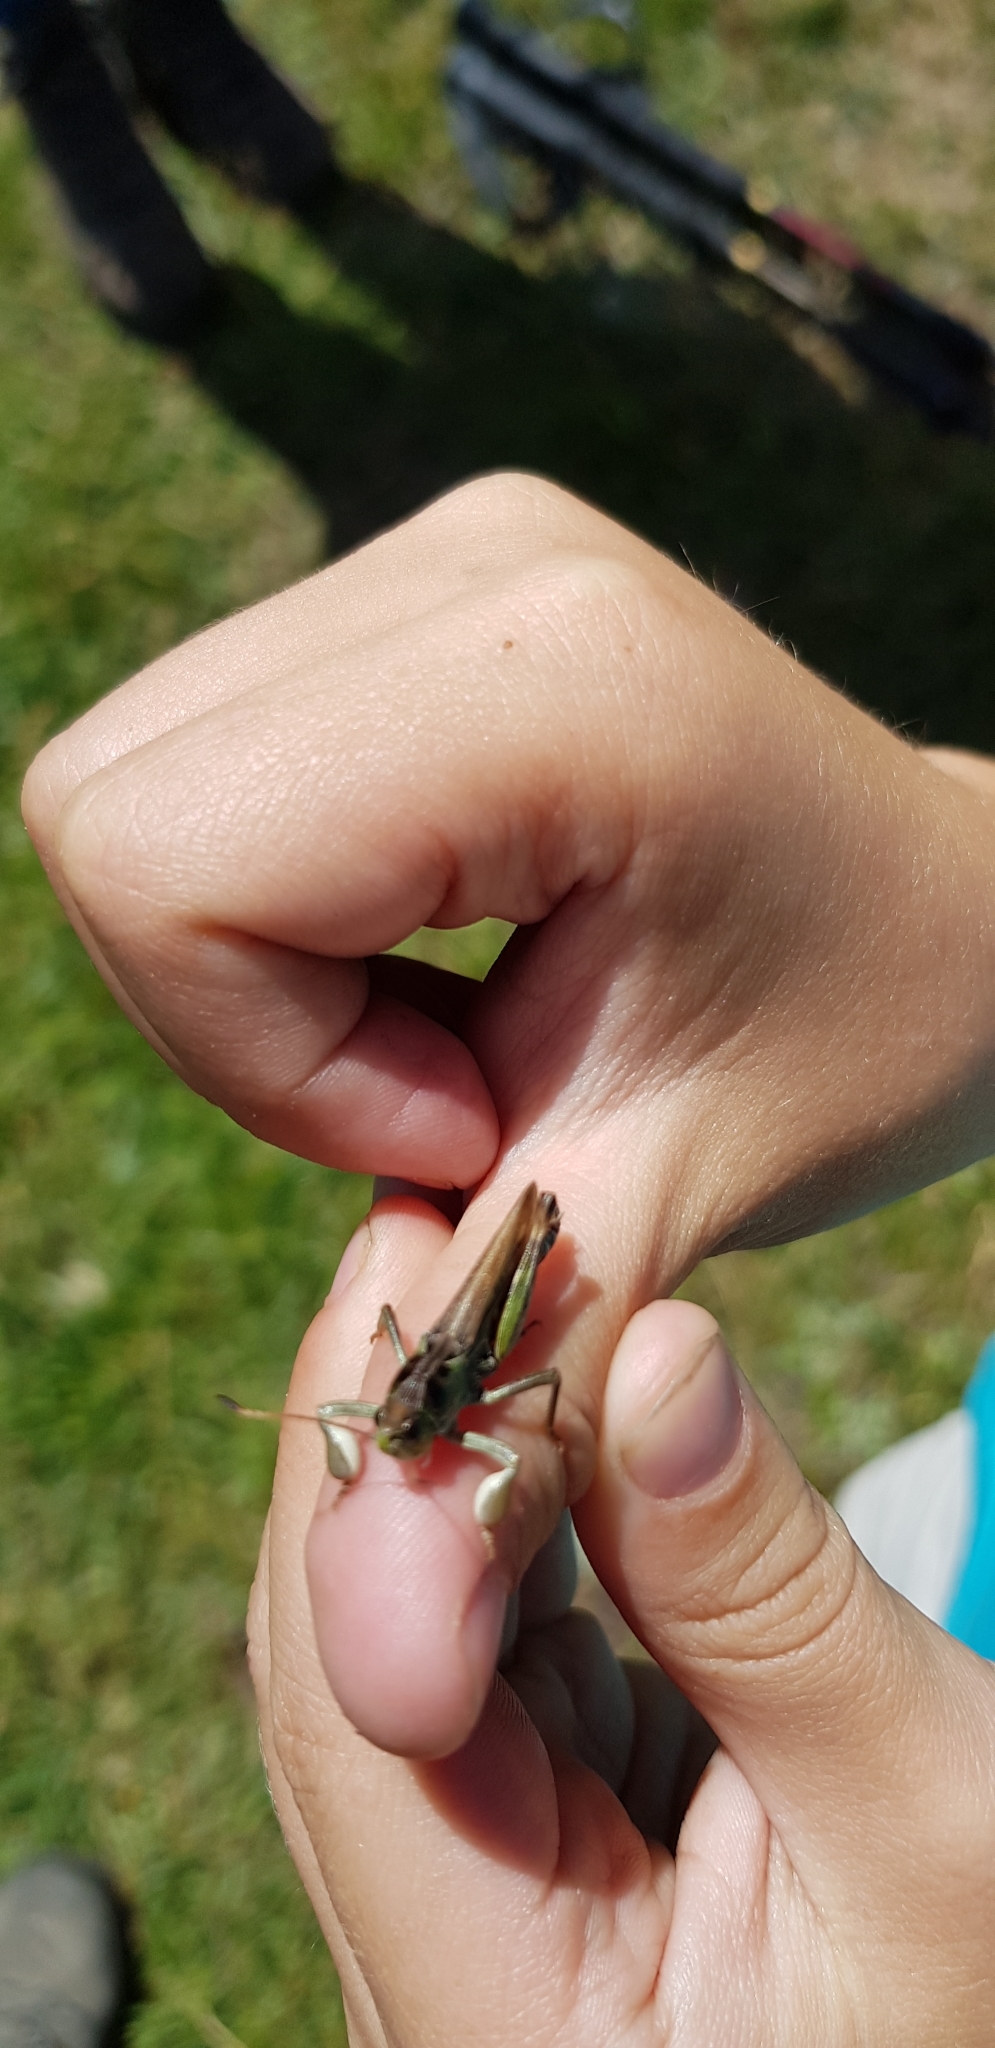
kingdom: Animalia
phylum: Arthropoda
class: Insecta
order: Orthoptera
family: Acrididae
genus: Gomphocerus
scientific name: Gomphocerus sibiricus
